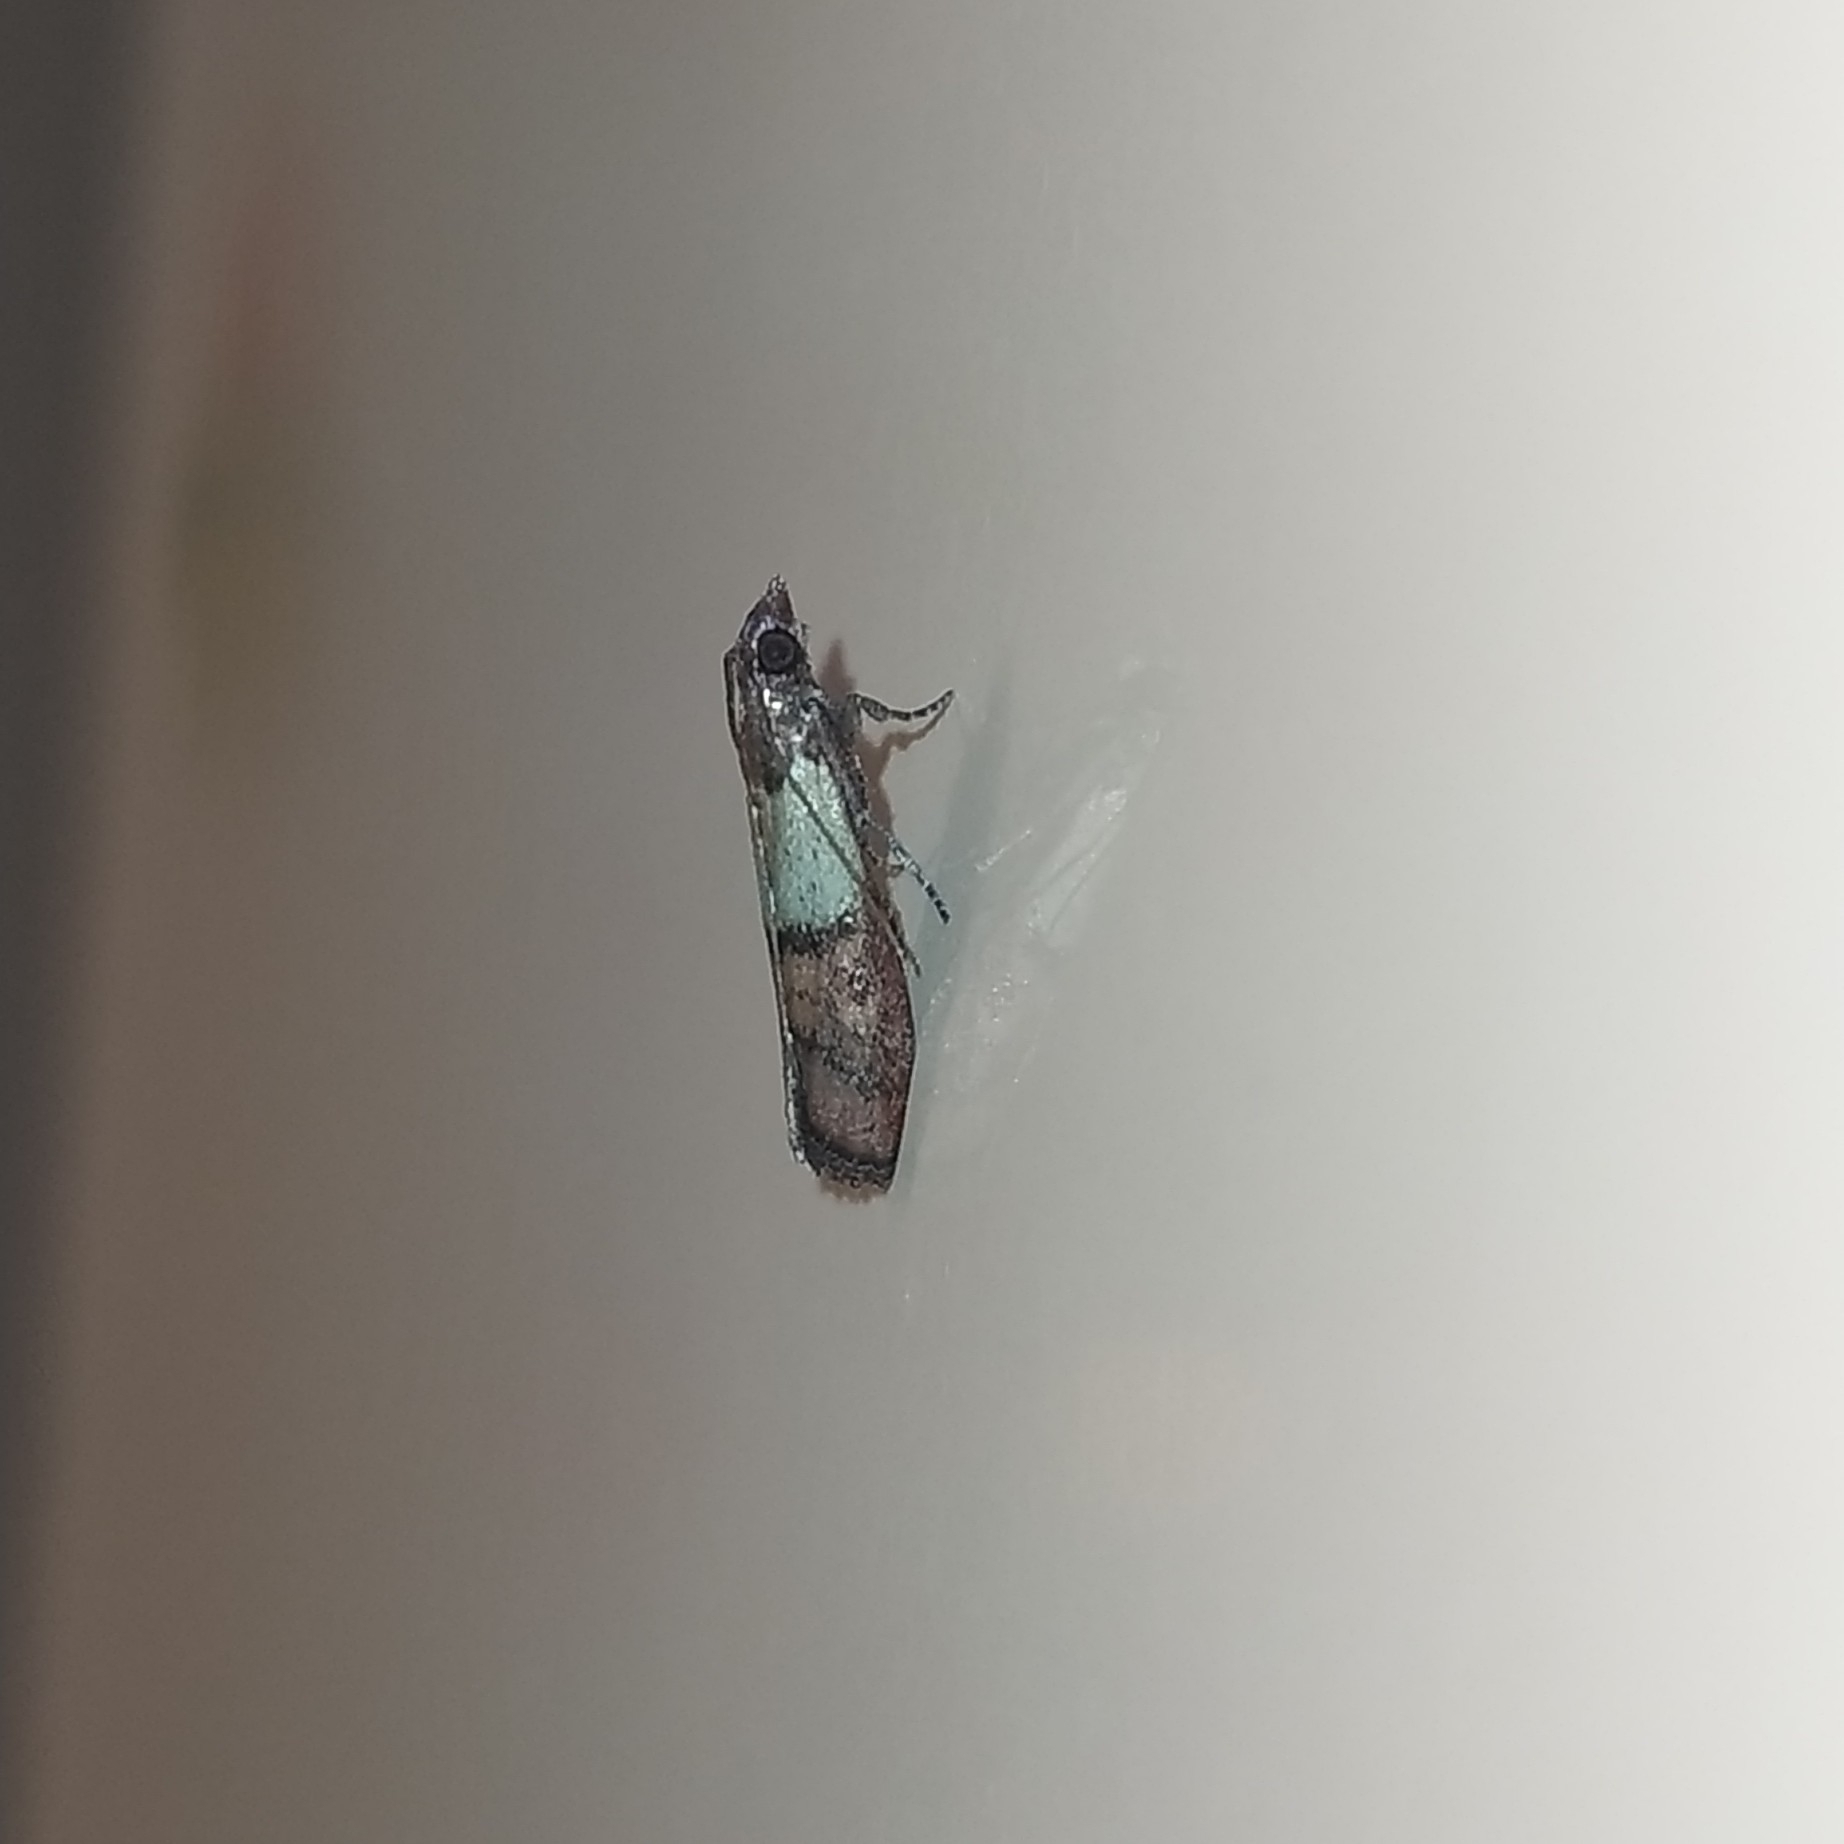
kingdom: Animalia
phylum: Arthropoda
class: Insecta
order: Lepidoptera
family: Pyralidae
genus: Plodia
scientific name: Plodia interpunctella
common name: Indian meal moth
